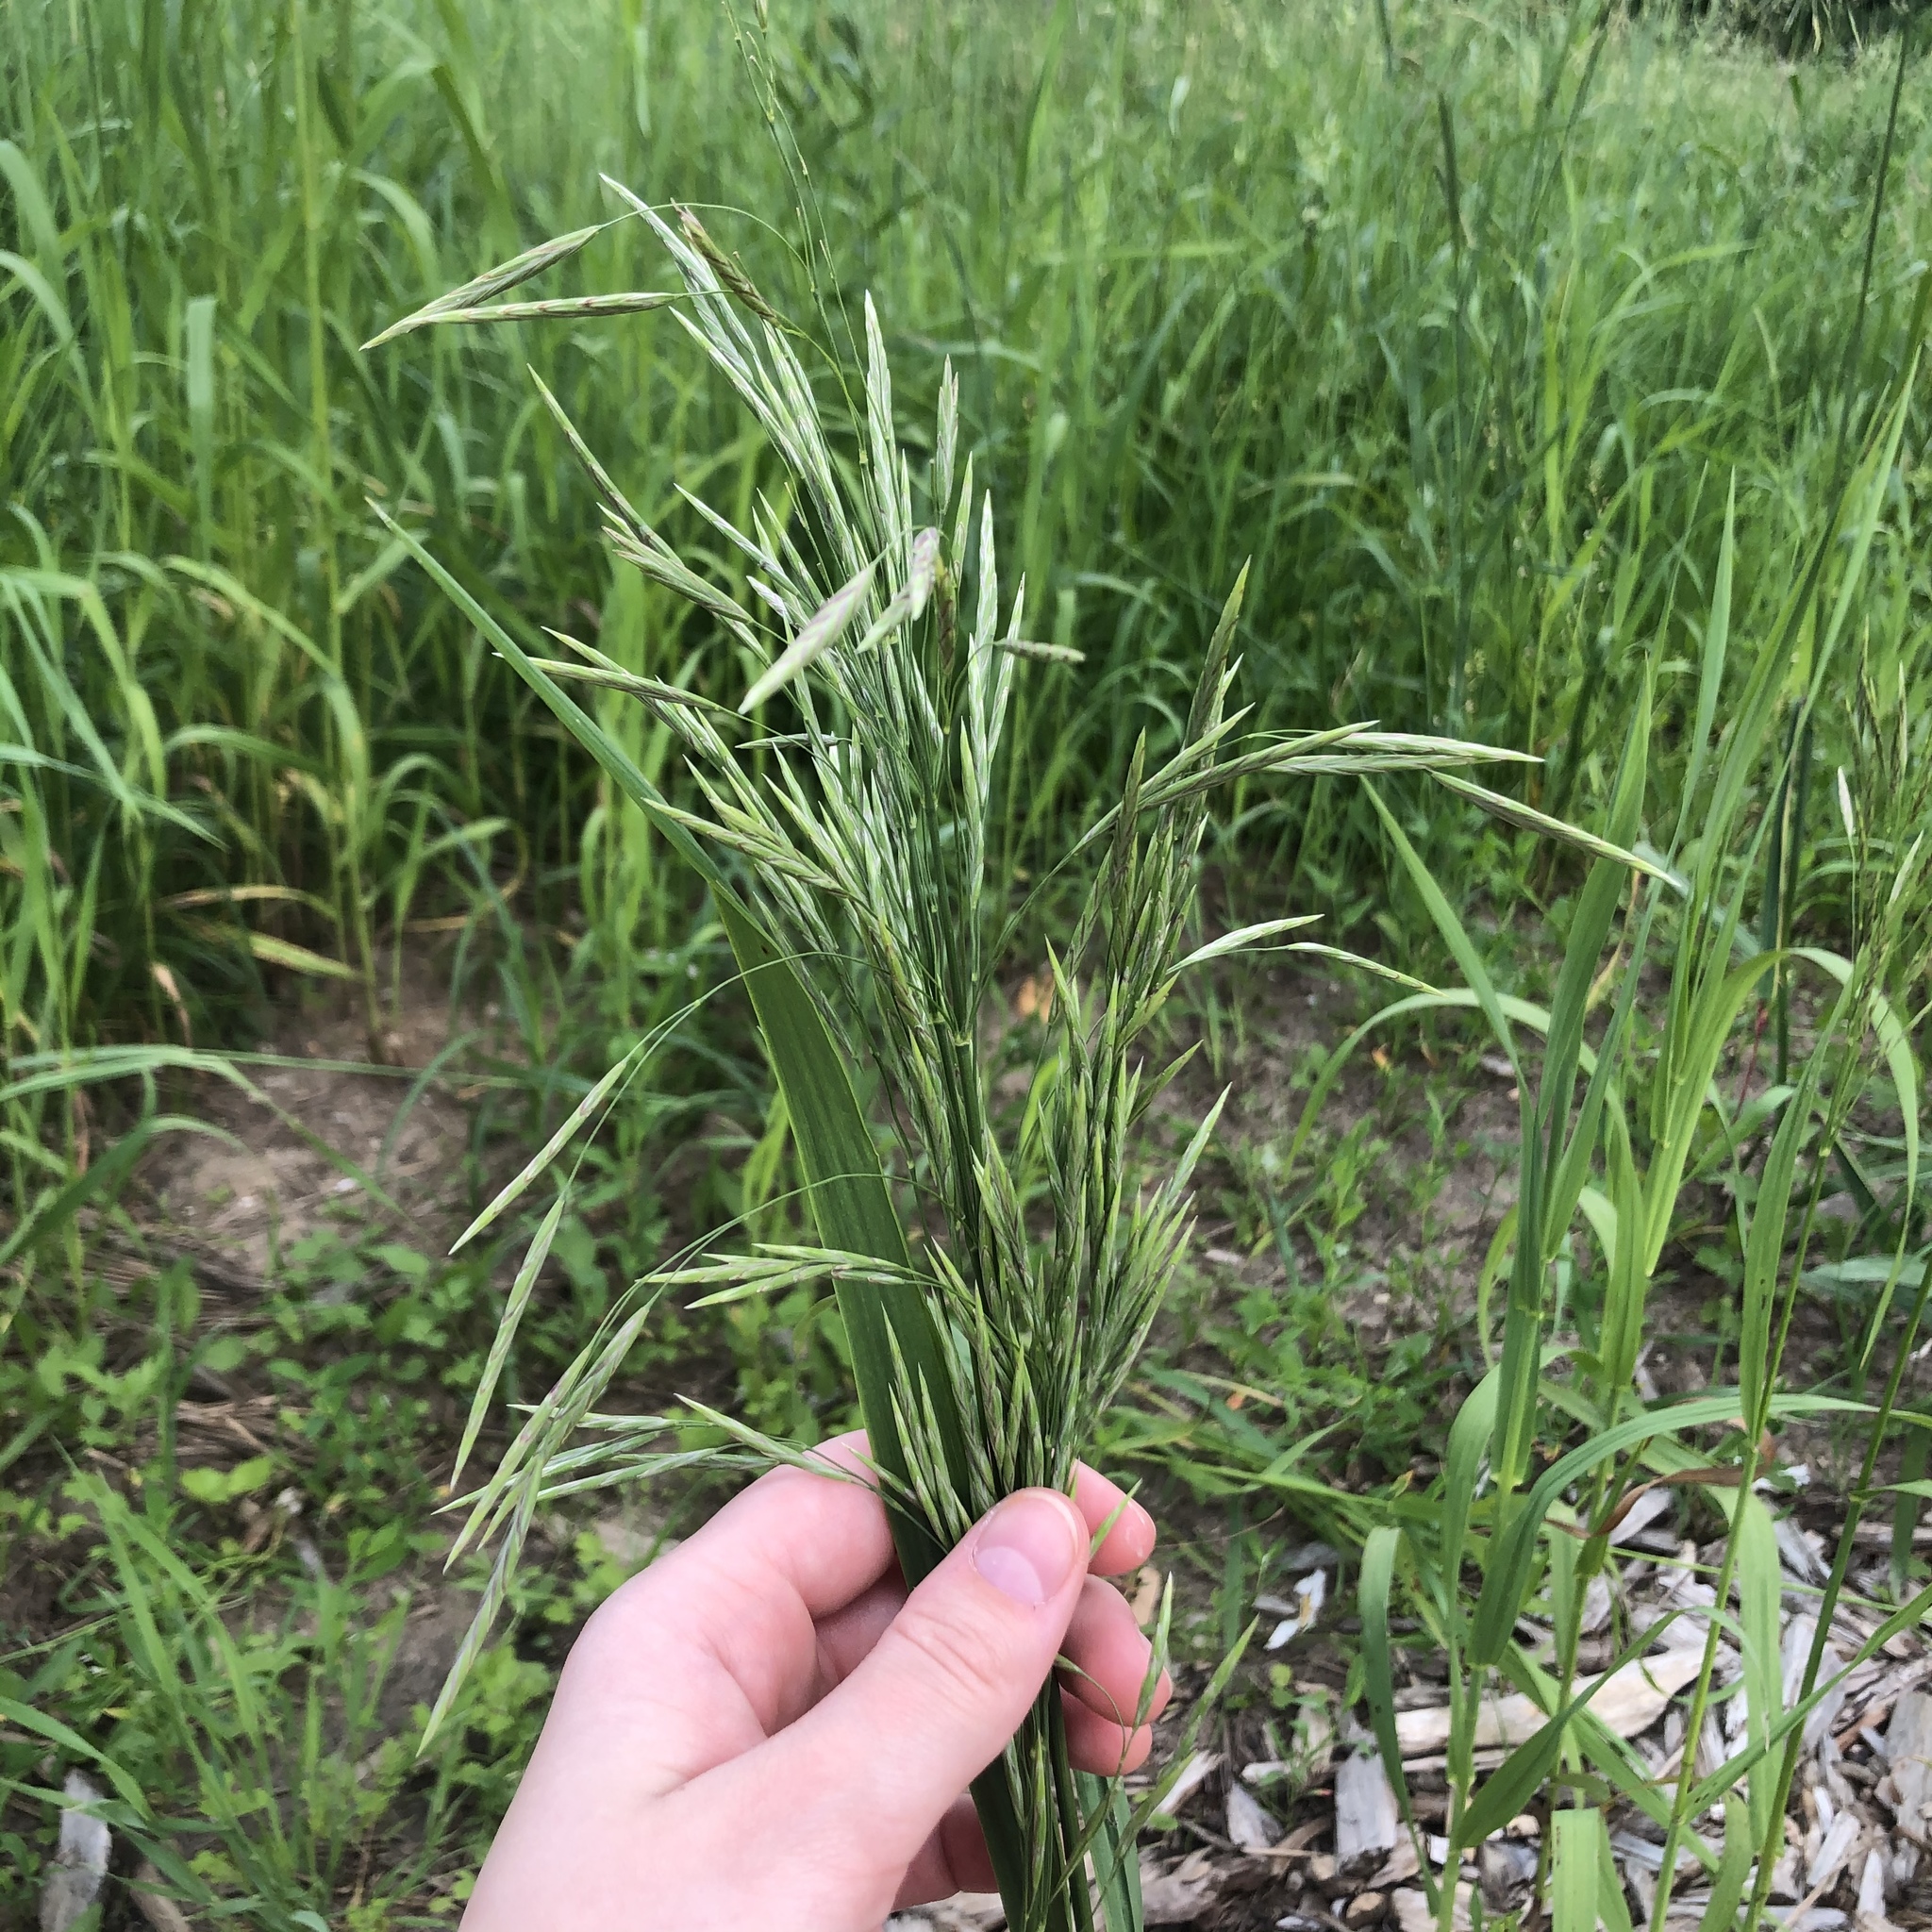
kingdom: Plantae
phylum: Tracheophyta
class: Liliopsida
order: Poales
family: Poaceae
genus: Bromus
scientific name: Bromus inermis
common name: Smooth brome
